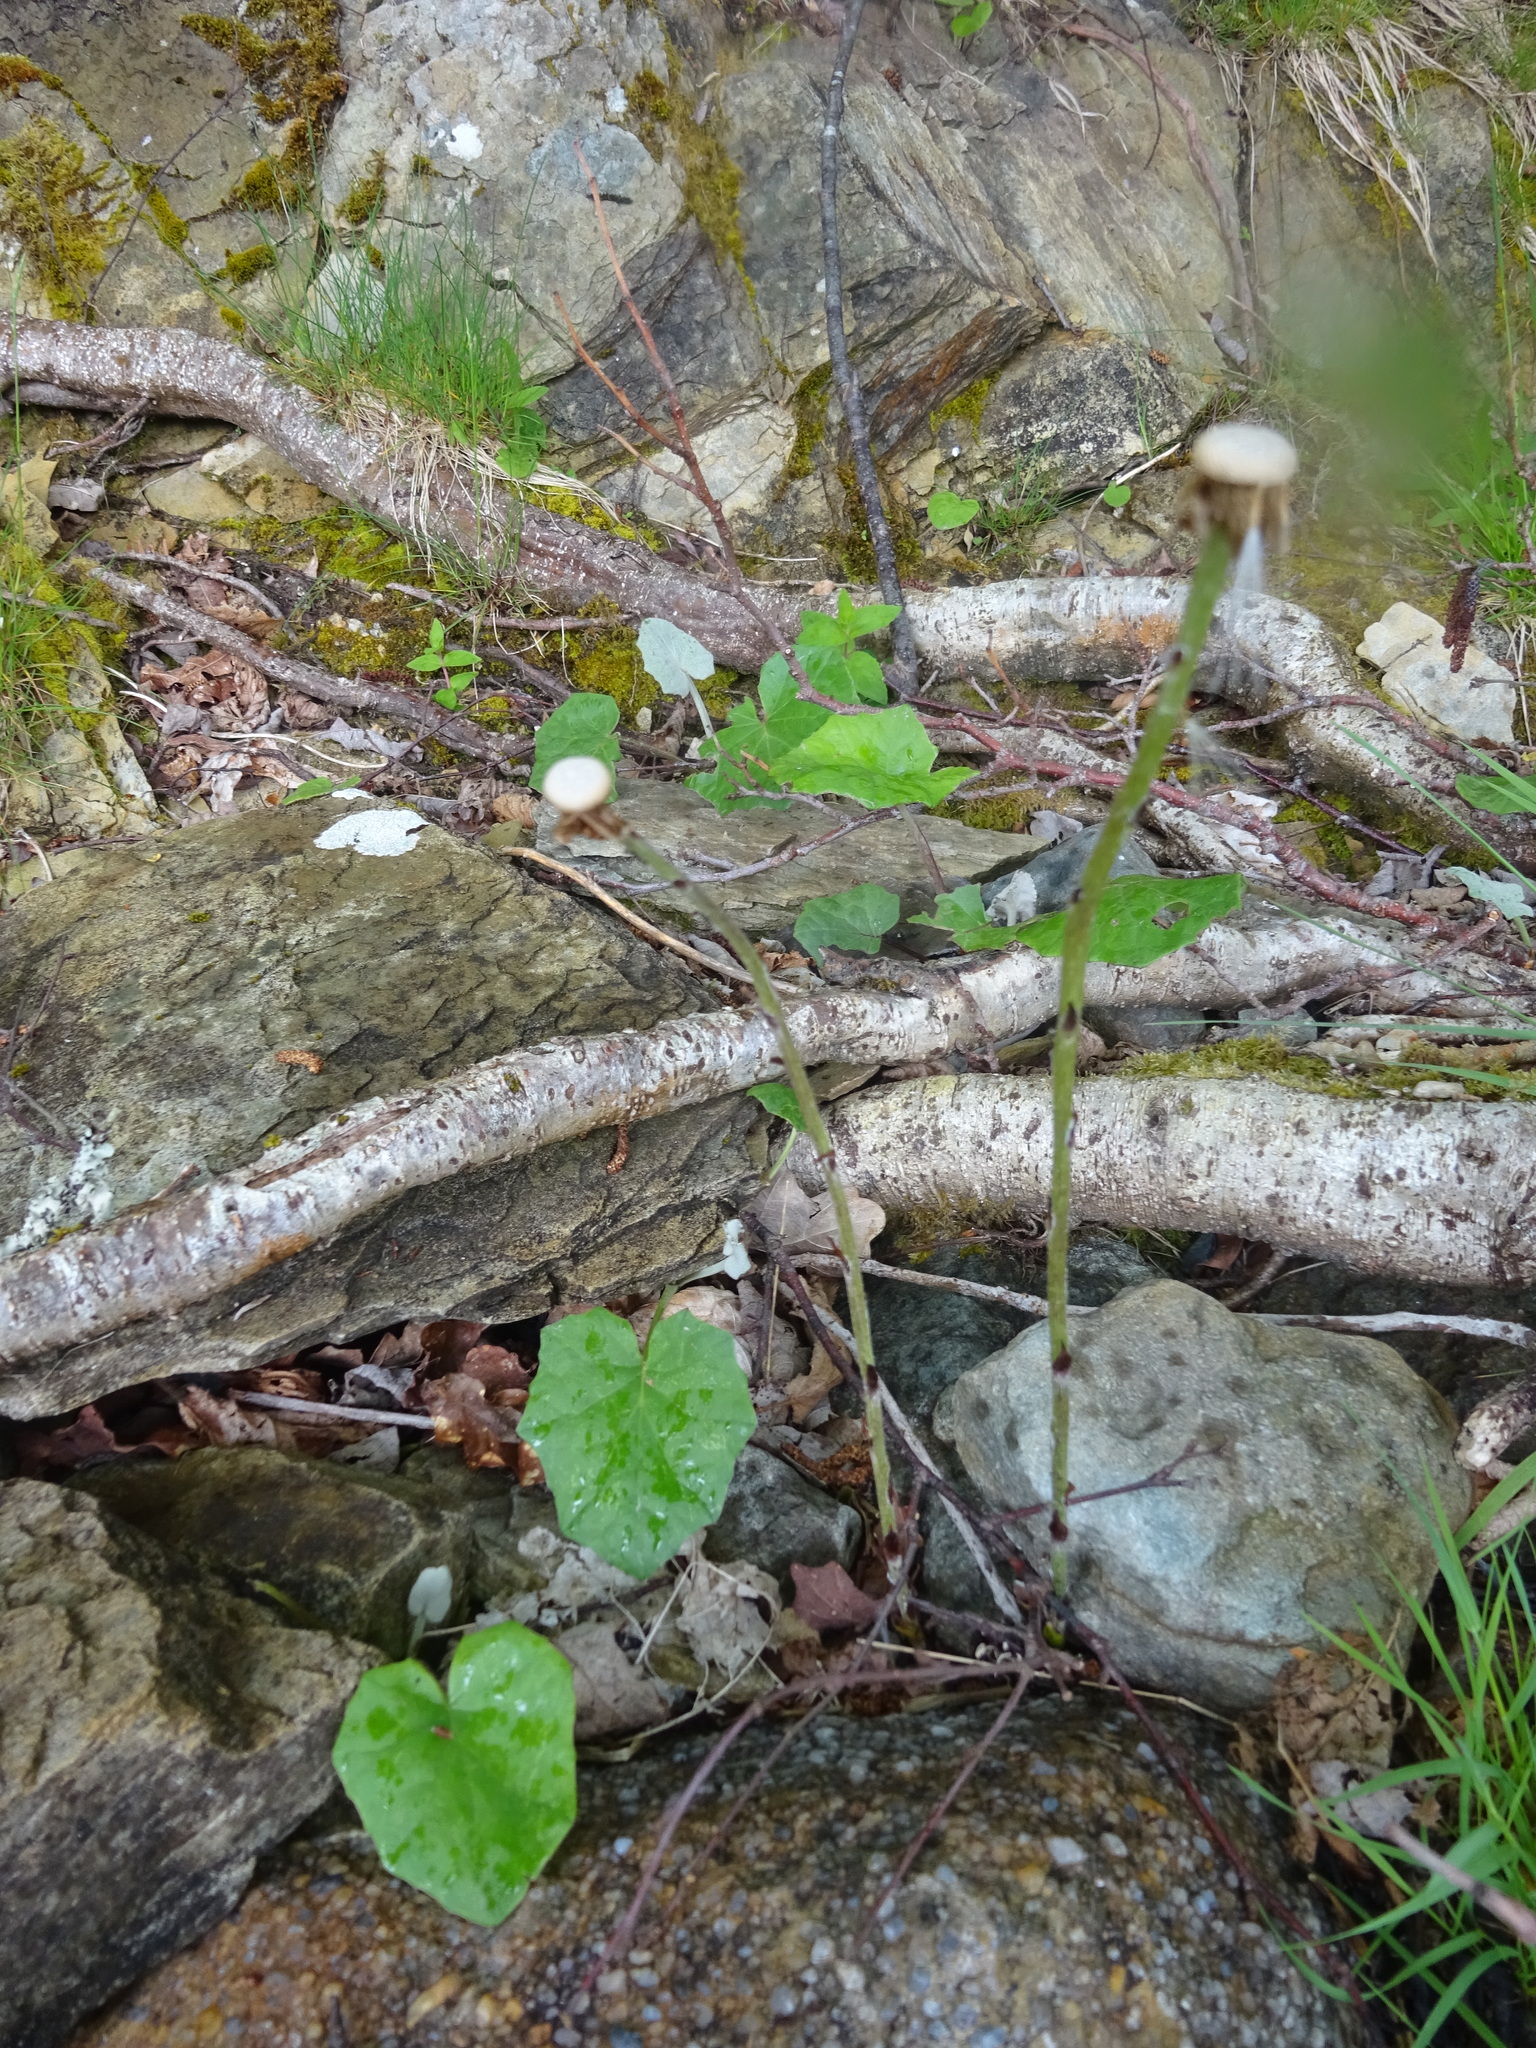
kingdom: Plantae
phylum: Tracheophyta
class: Magnoliopsida
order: Asterales
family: Asteraceae
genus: Tussilago
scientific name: Tussilago farfara
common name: Coltsfoot
